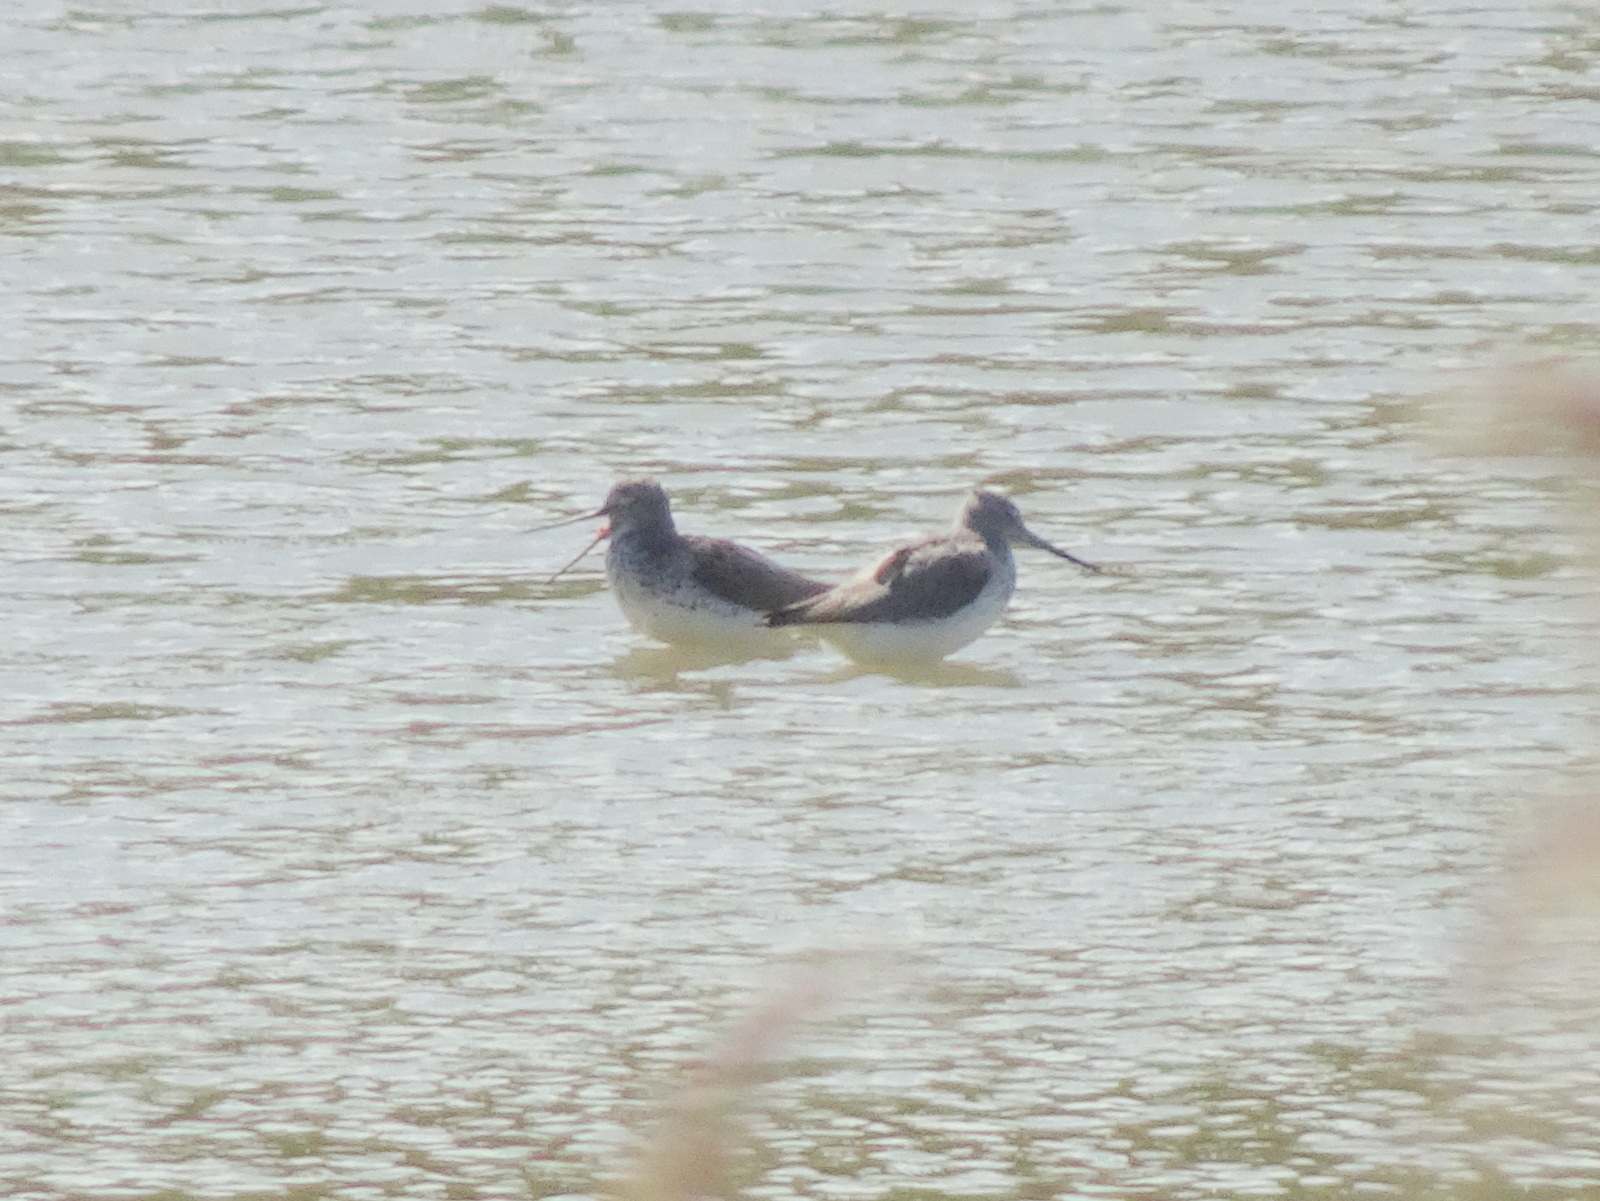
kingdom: Animalia
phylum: Chordata
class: Aves
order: Charadriiformes
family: Scolopacidae
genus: Tringa
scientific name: Tringa nebularia
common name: Common greenshank
